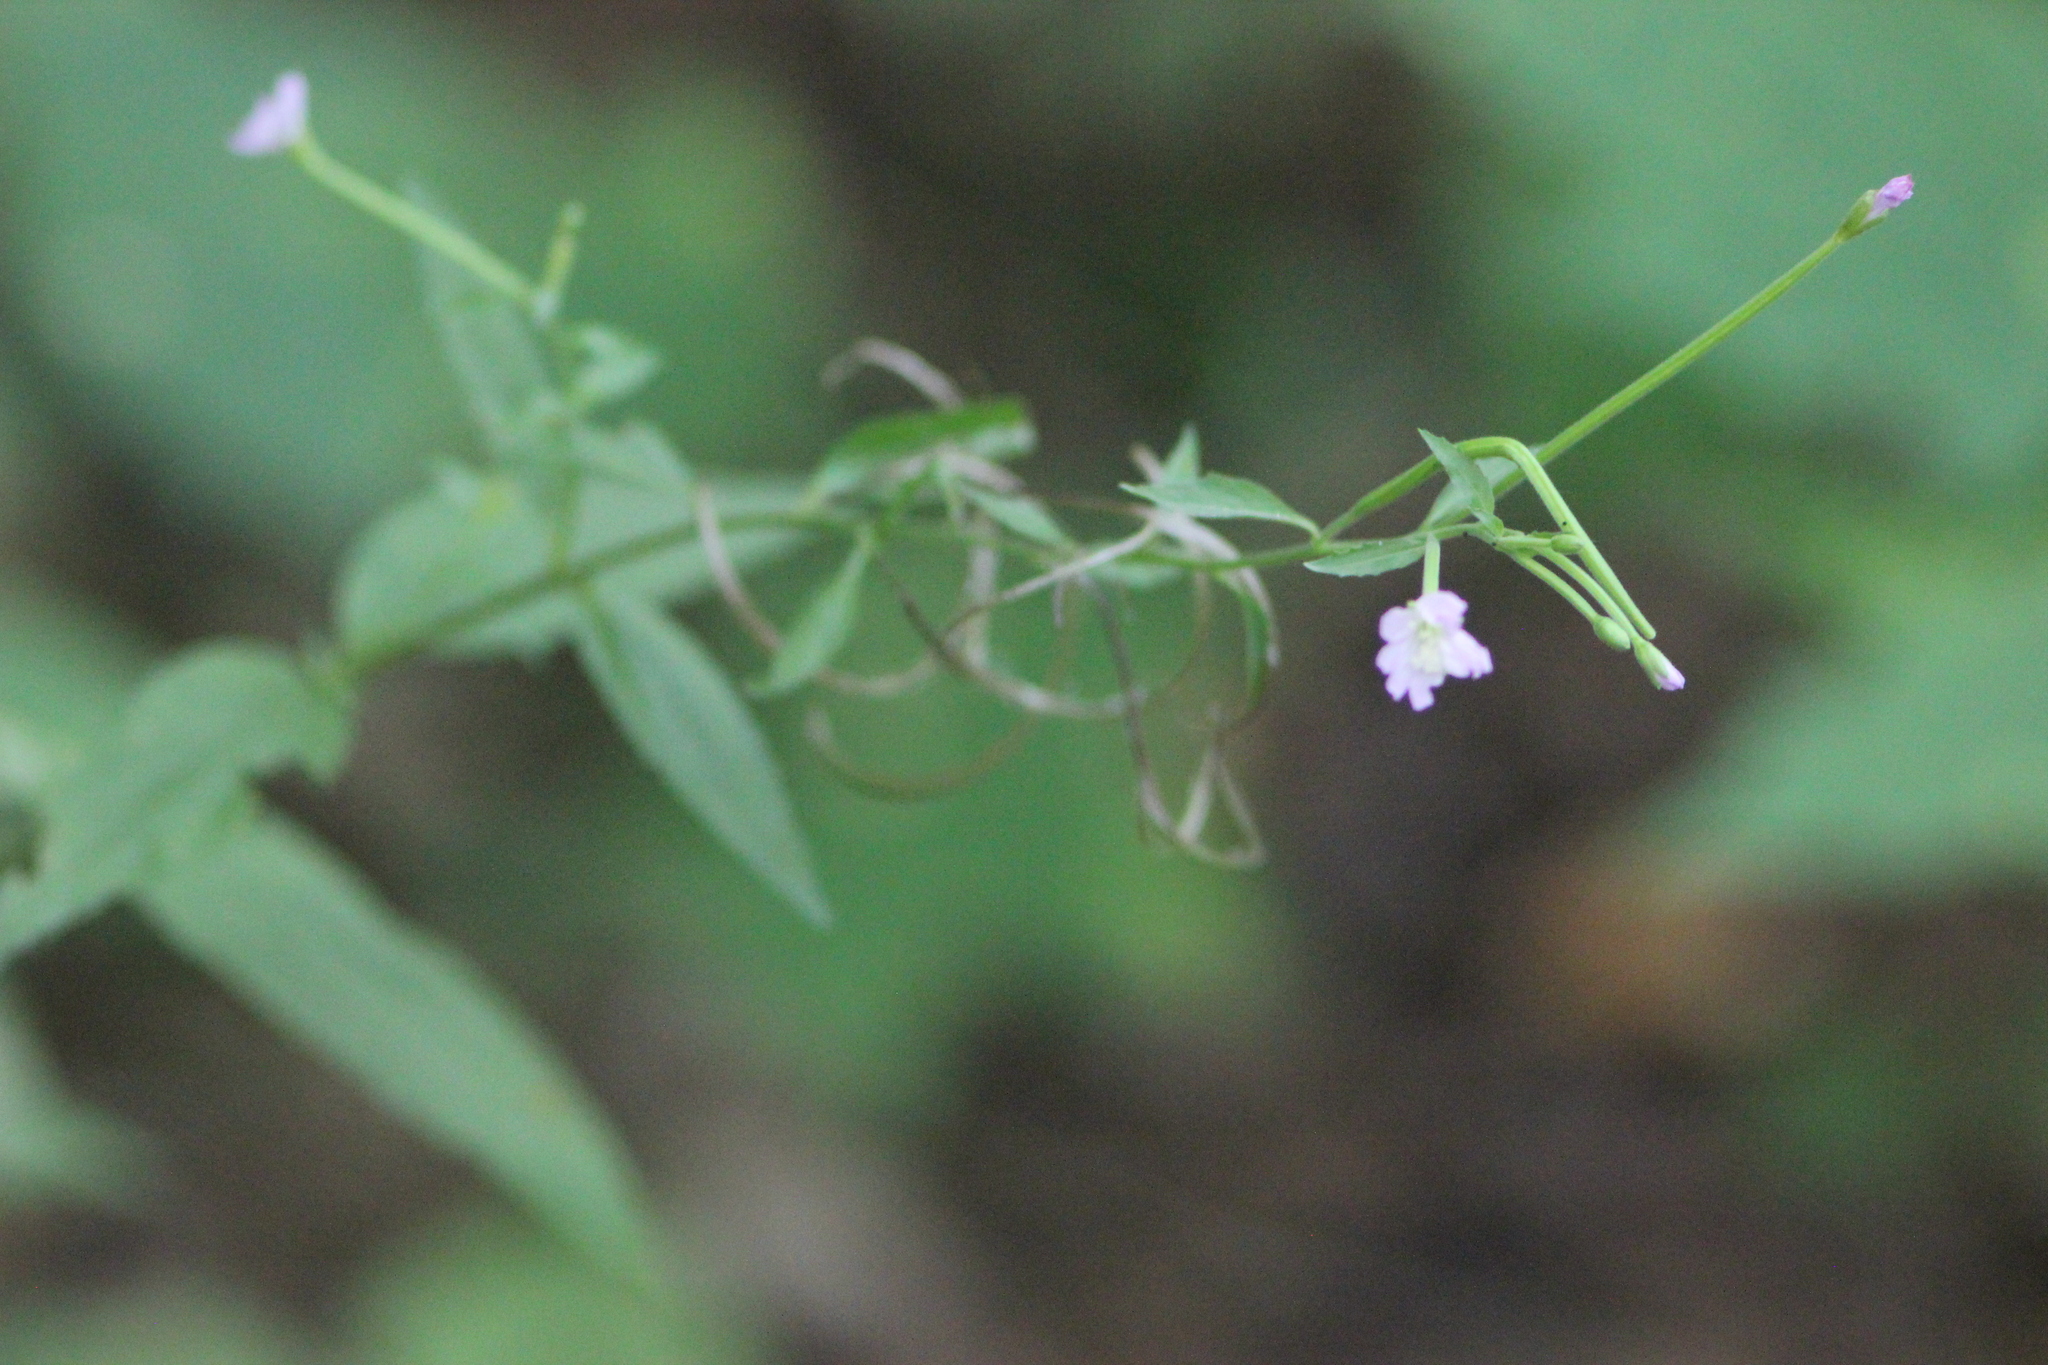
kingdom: Plantae
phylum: Tracheophyta
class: Magnoliopsida
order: Myrtales
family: Onagraceae
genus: Epilobium
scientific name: Epilobium montanum
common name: Broad-leaved willowherb
